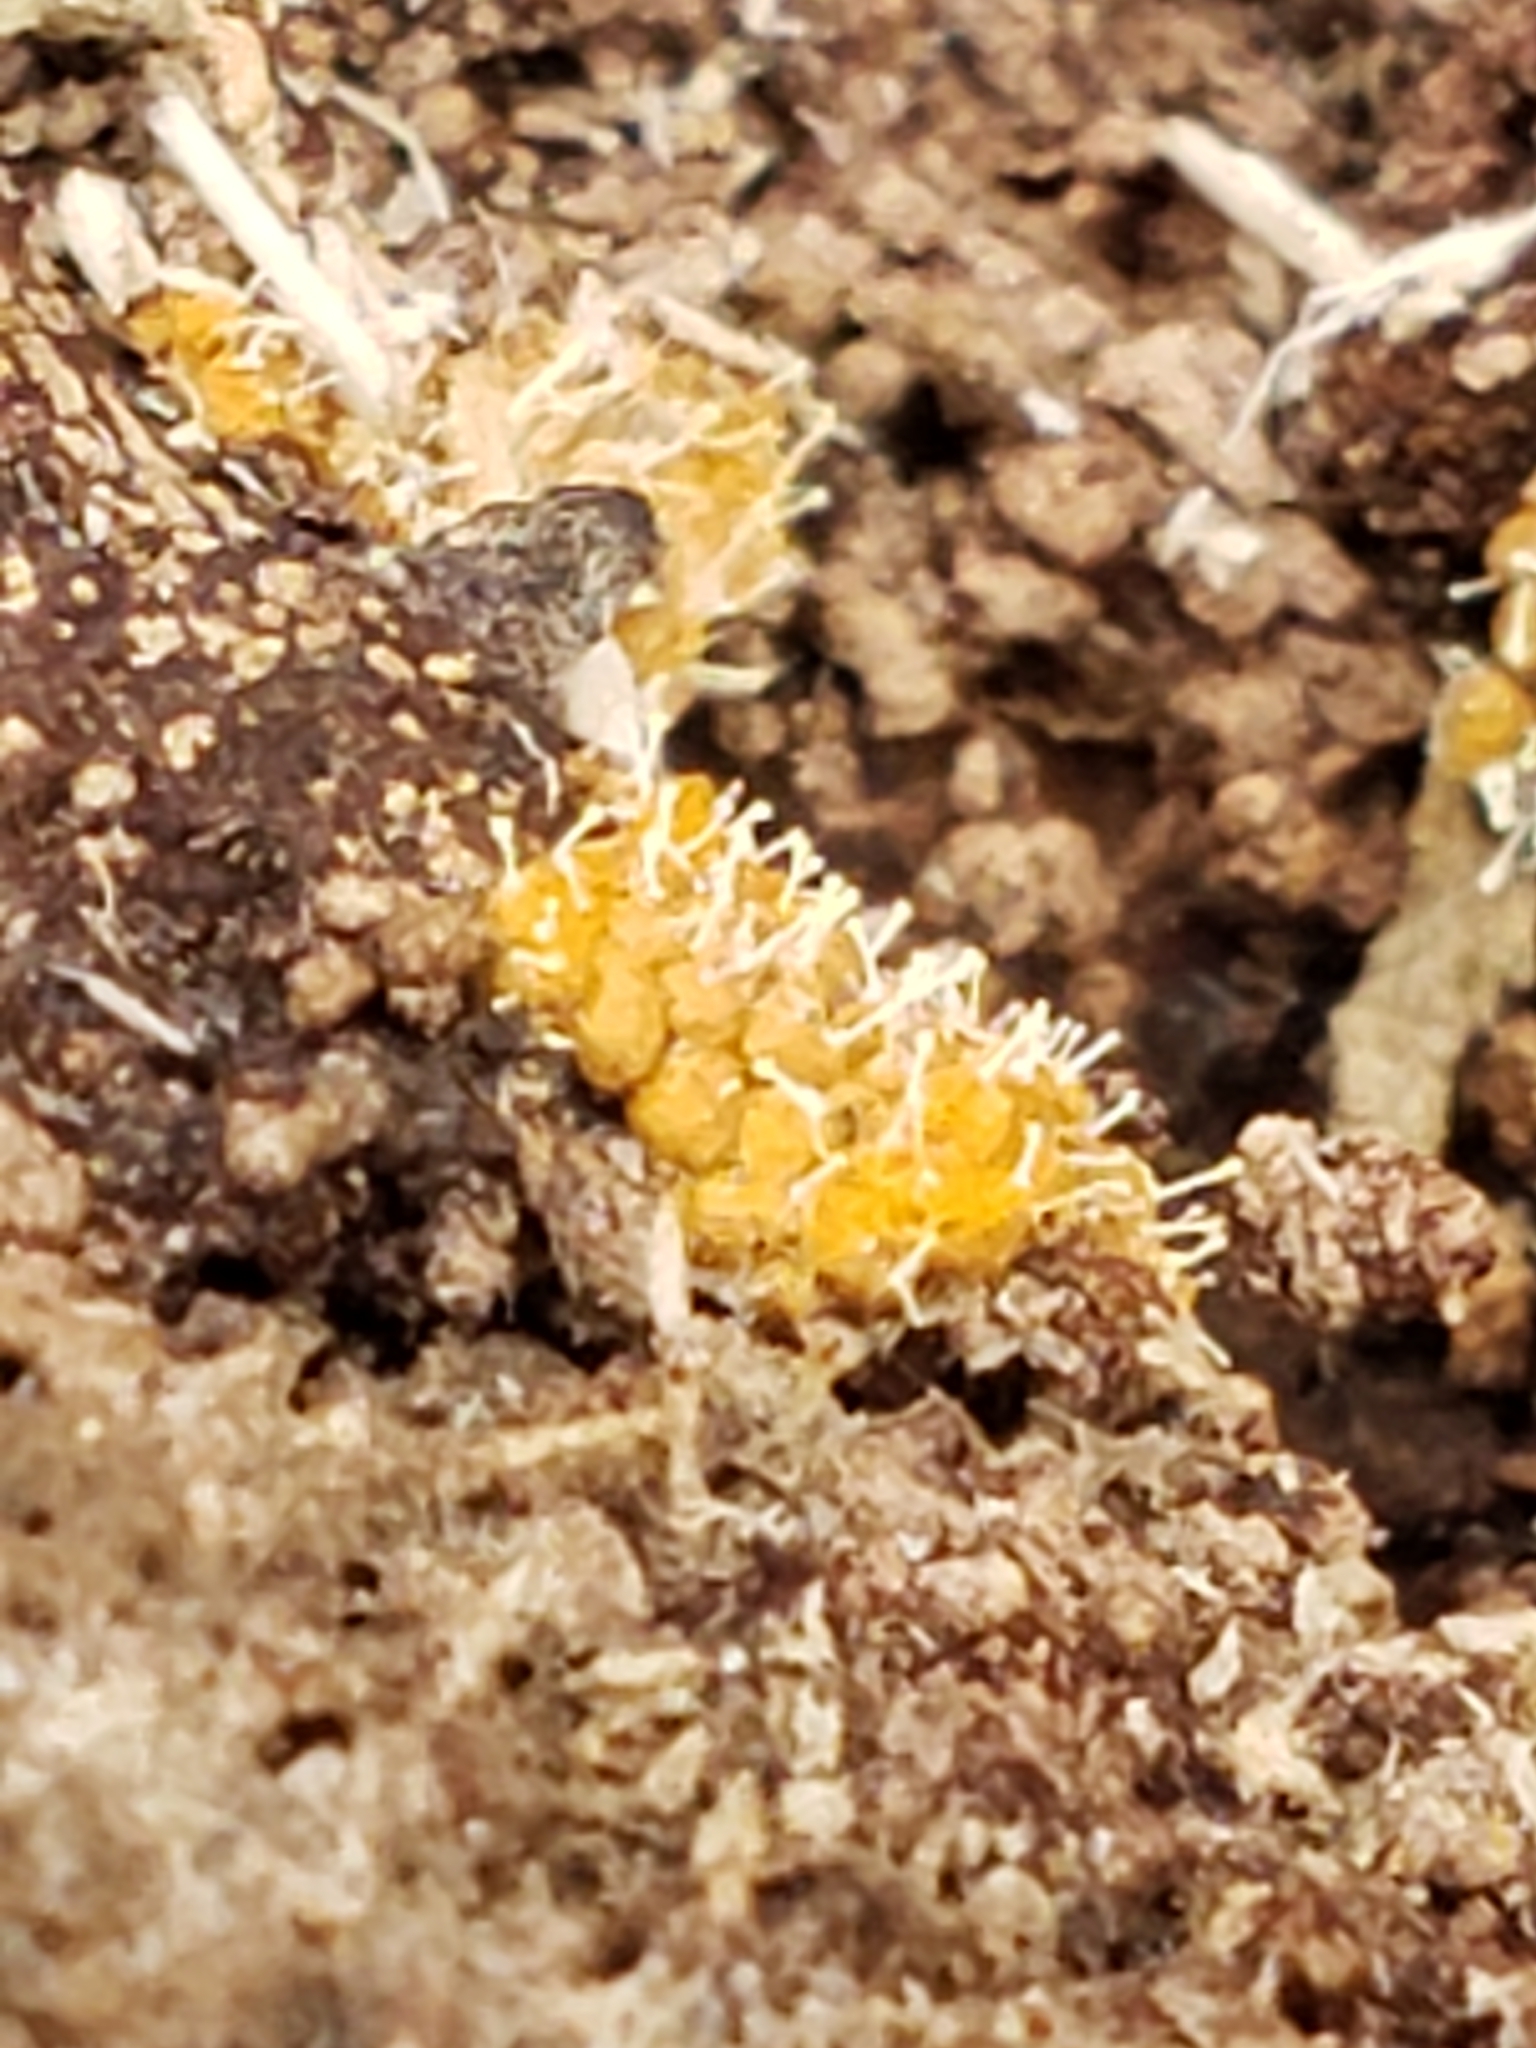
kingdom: Fungi
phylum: Ascomycota
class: Sordariomycetes
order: Hypocreales
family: Ophiocordycipitaceae
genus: Polycephalomyces
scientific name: Polycephalomyces tomentosus
